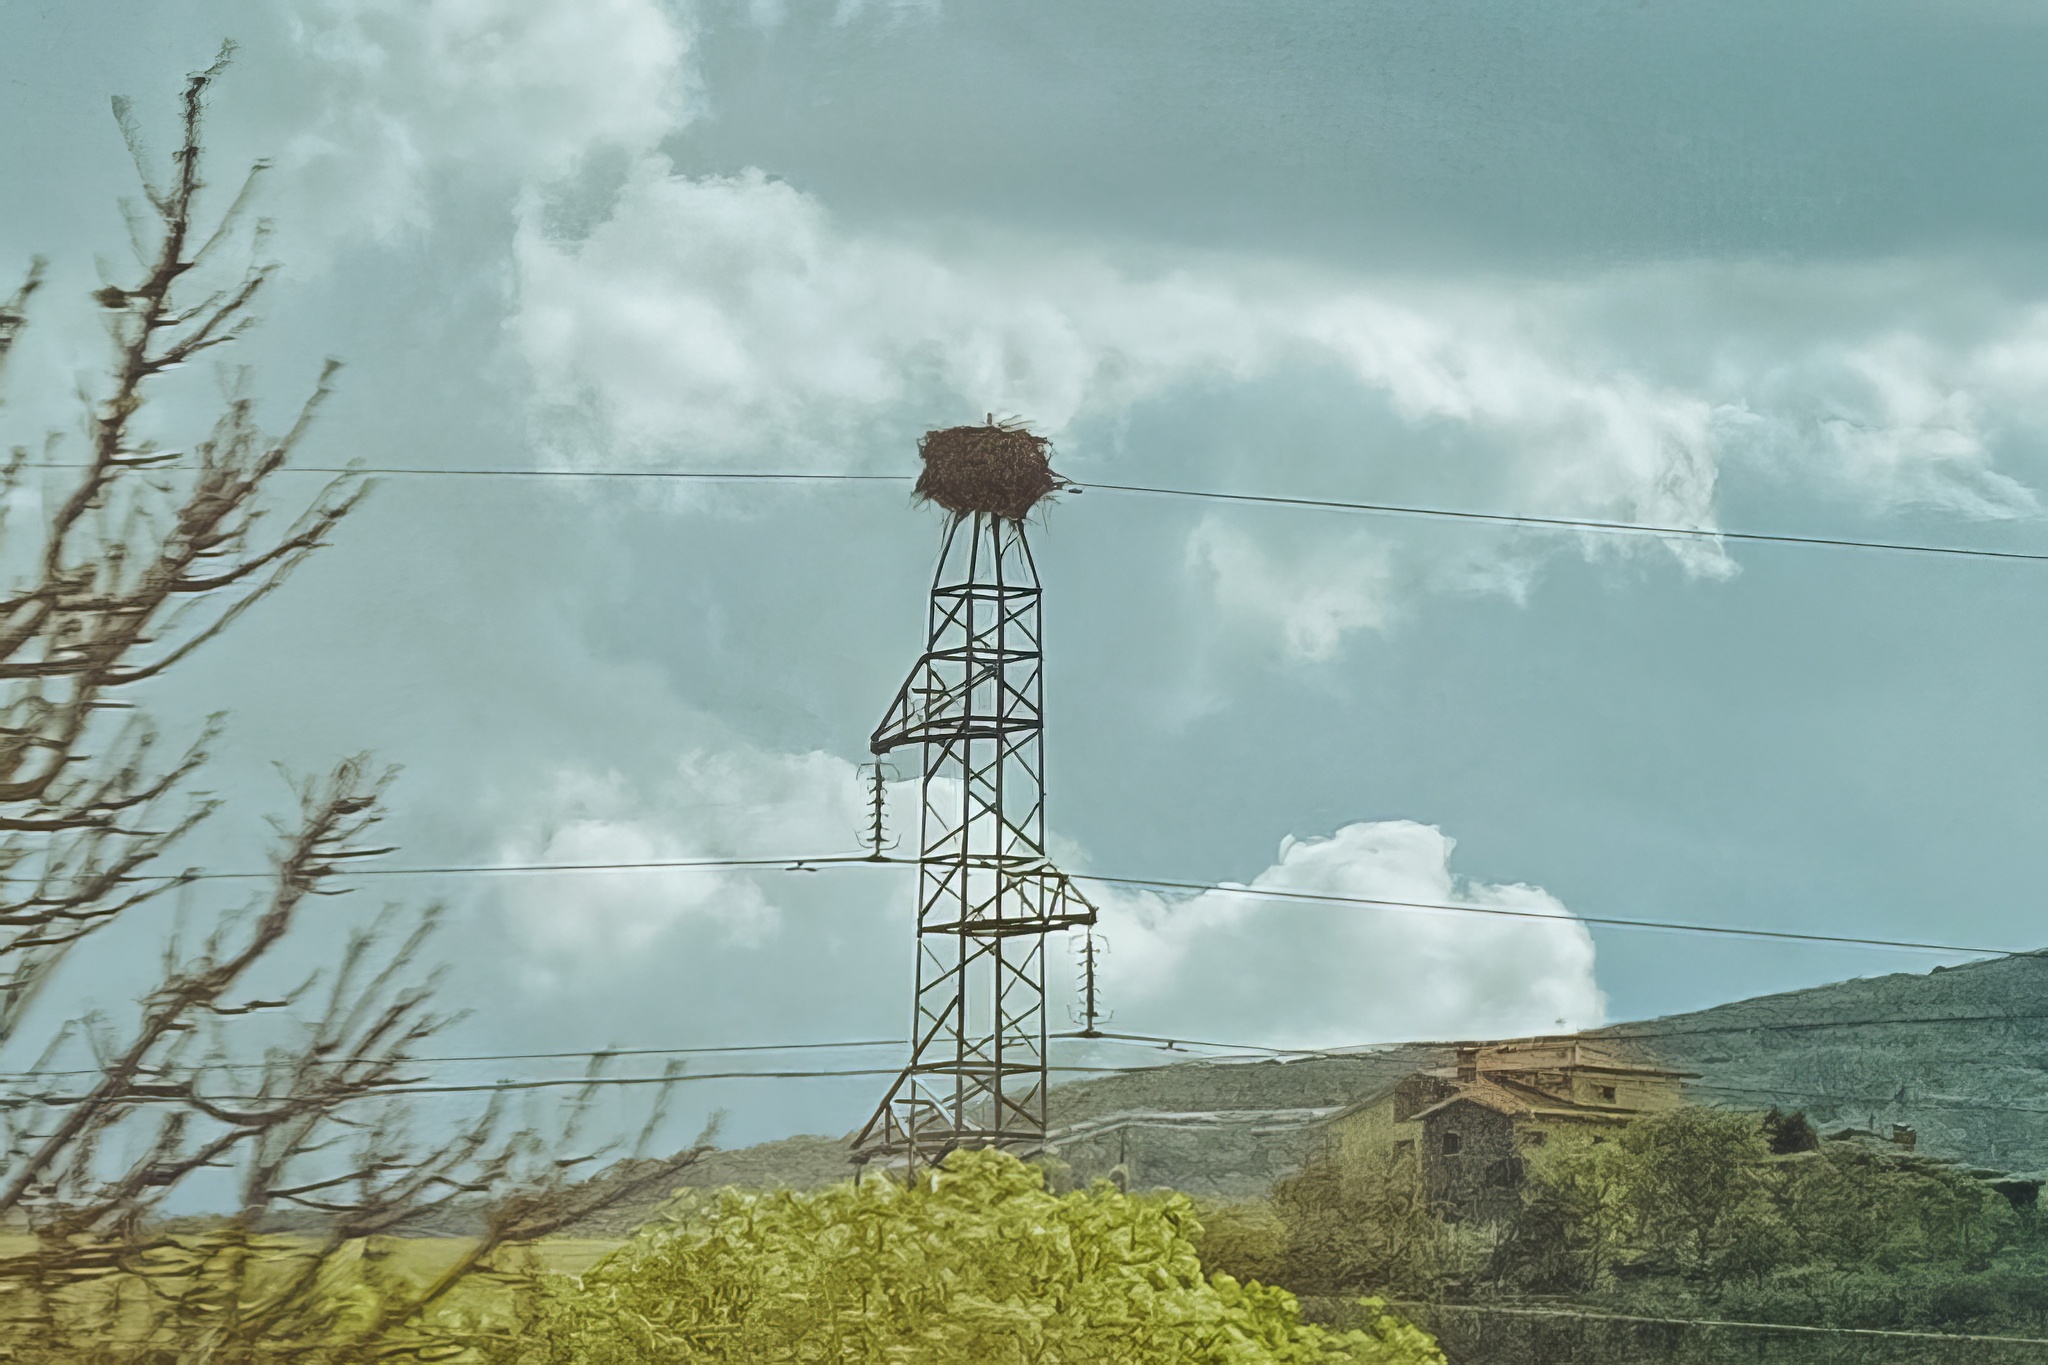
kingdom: Animalia
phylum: Chordata
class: Aves
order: Ciconiiformes
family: Ciconiidae
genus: Ciconia
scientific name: Ciconia ciconia
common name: White stork
